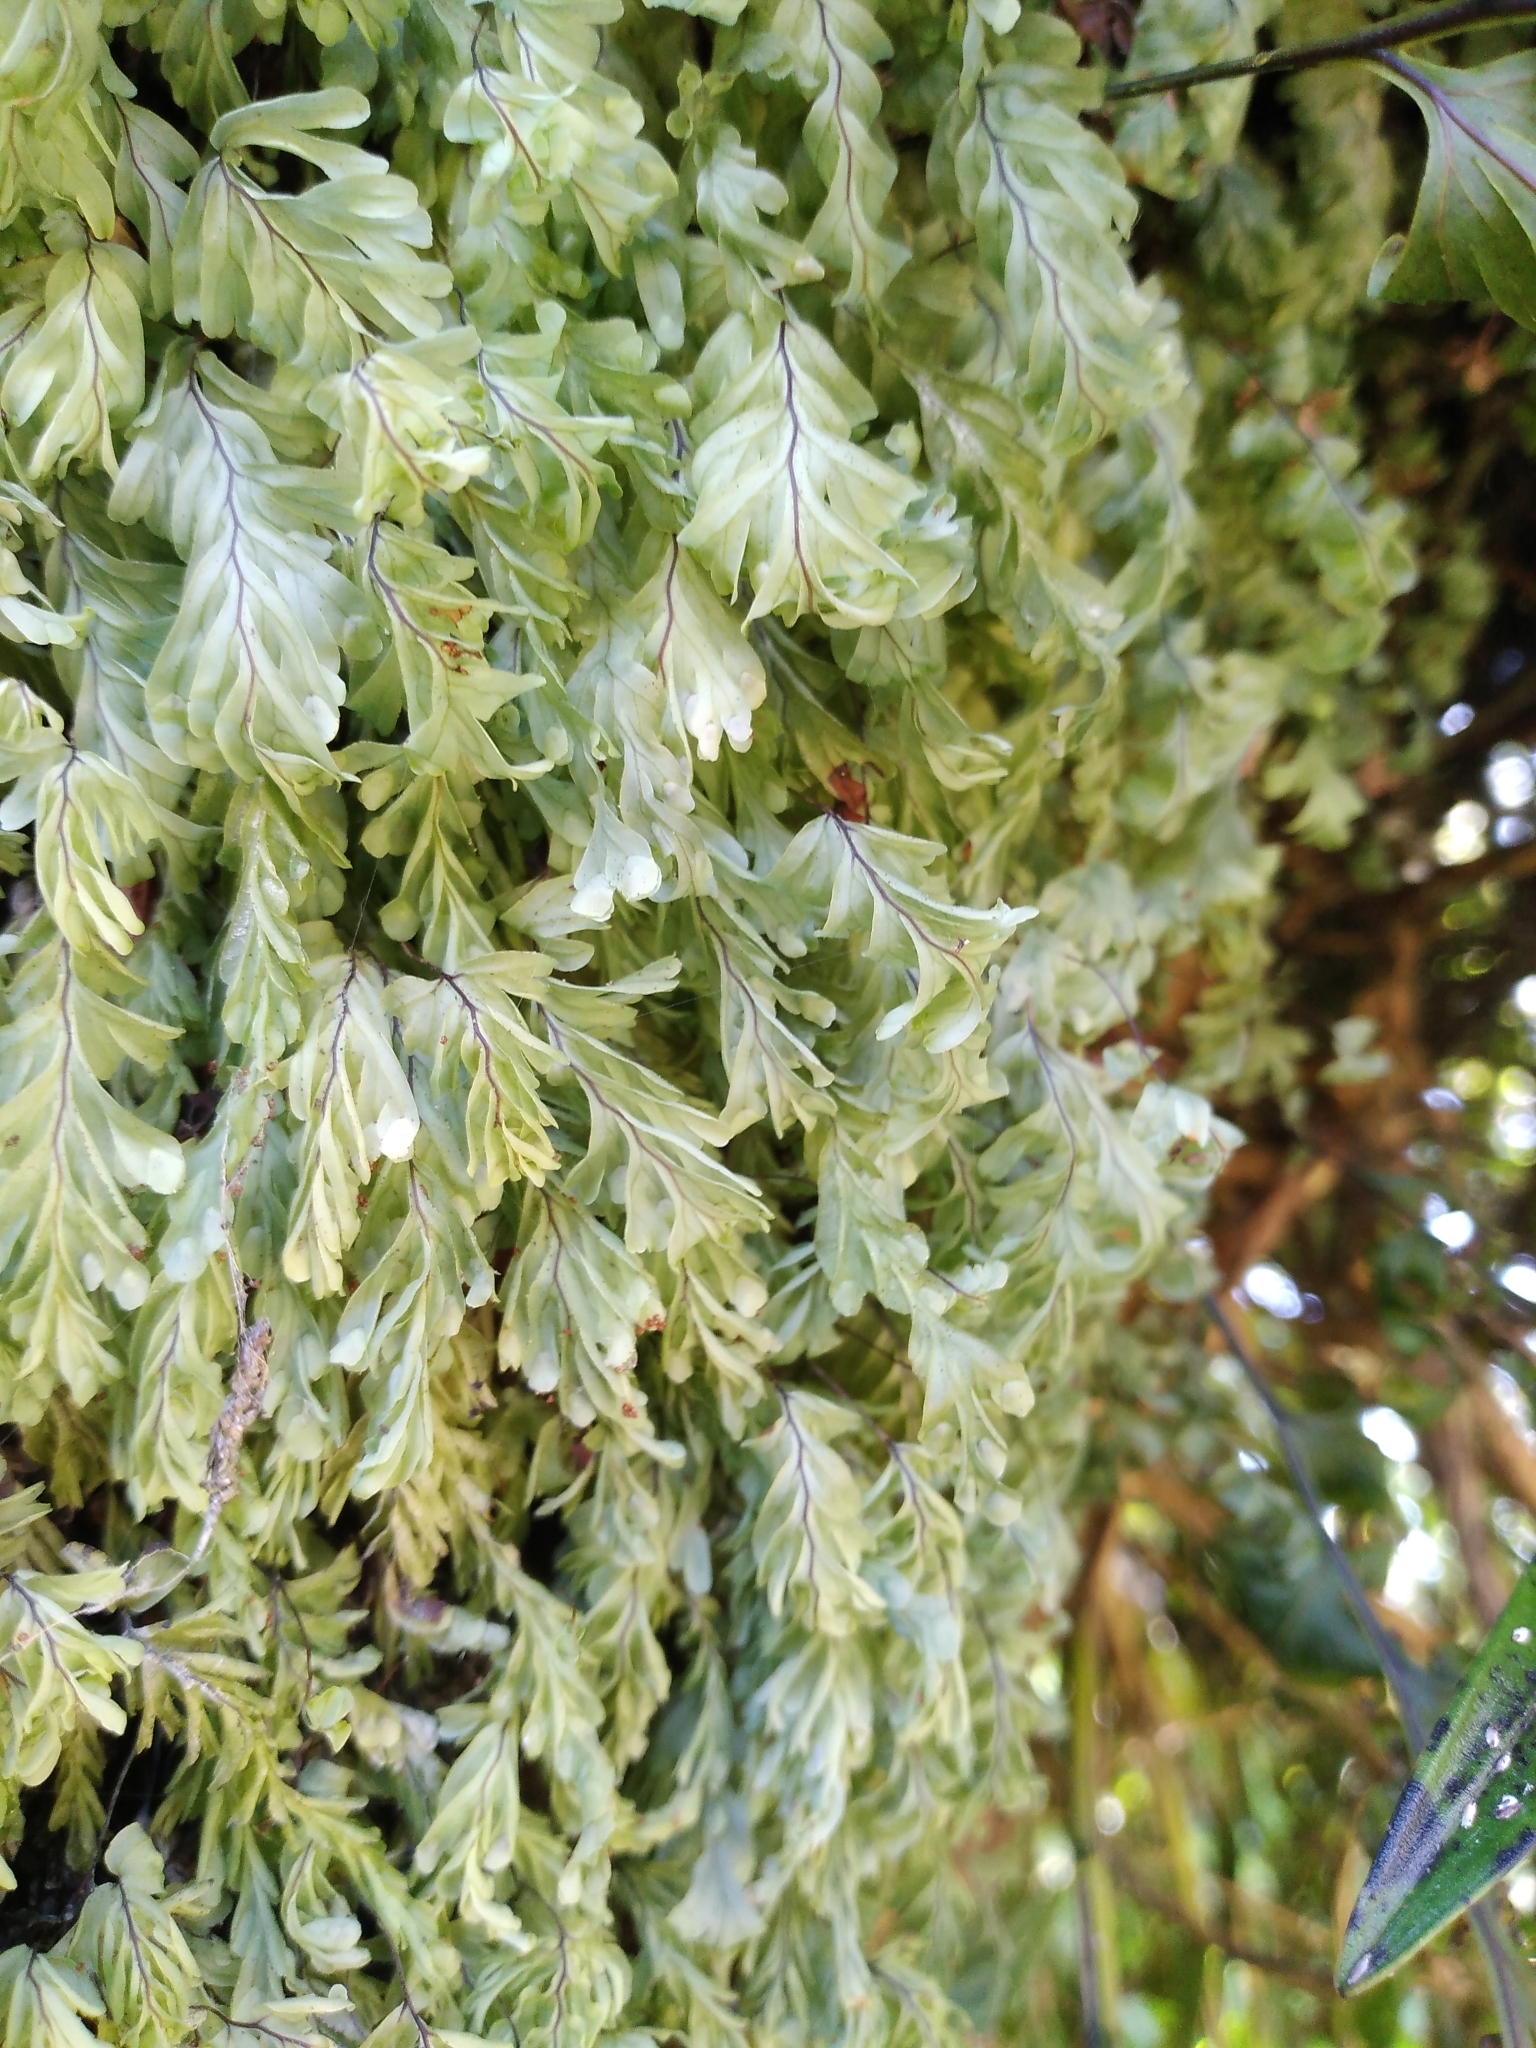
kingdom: Plantae
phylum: Tracheophyta
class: Polypodiopsida
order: Hymenophyllales
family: Hymenophyllaceae
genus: Hymenophyllum
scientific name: Hymenophyllum rarum
